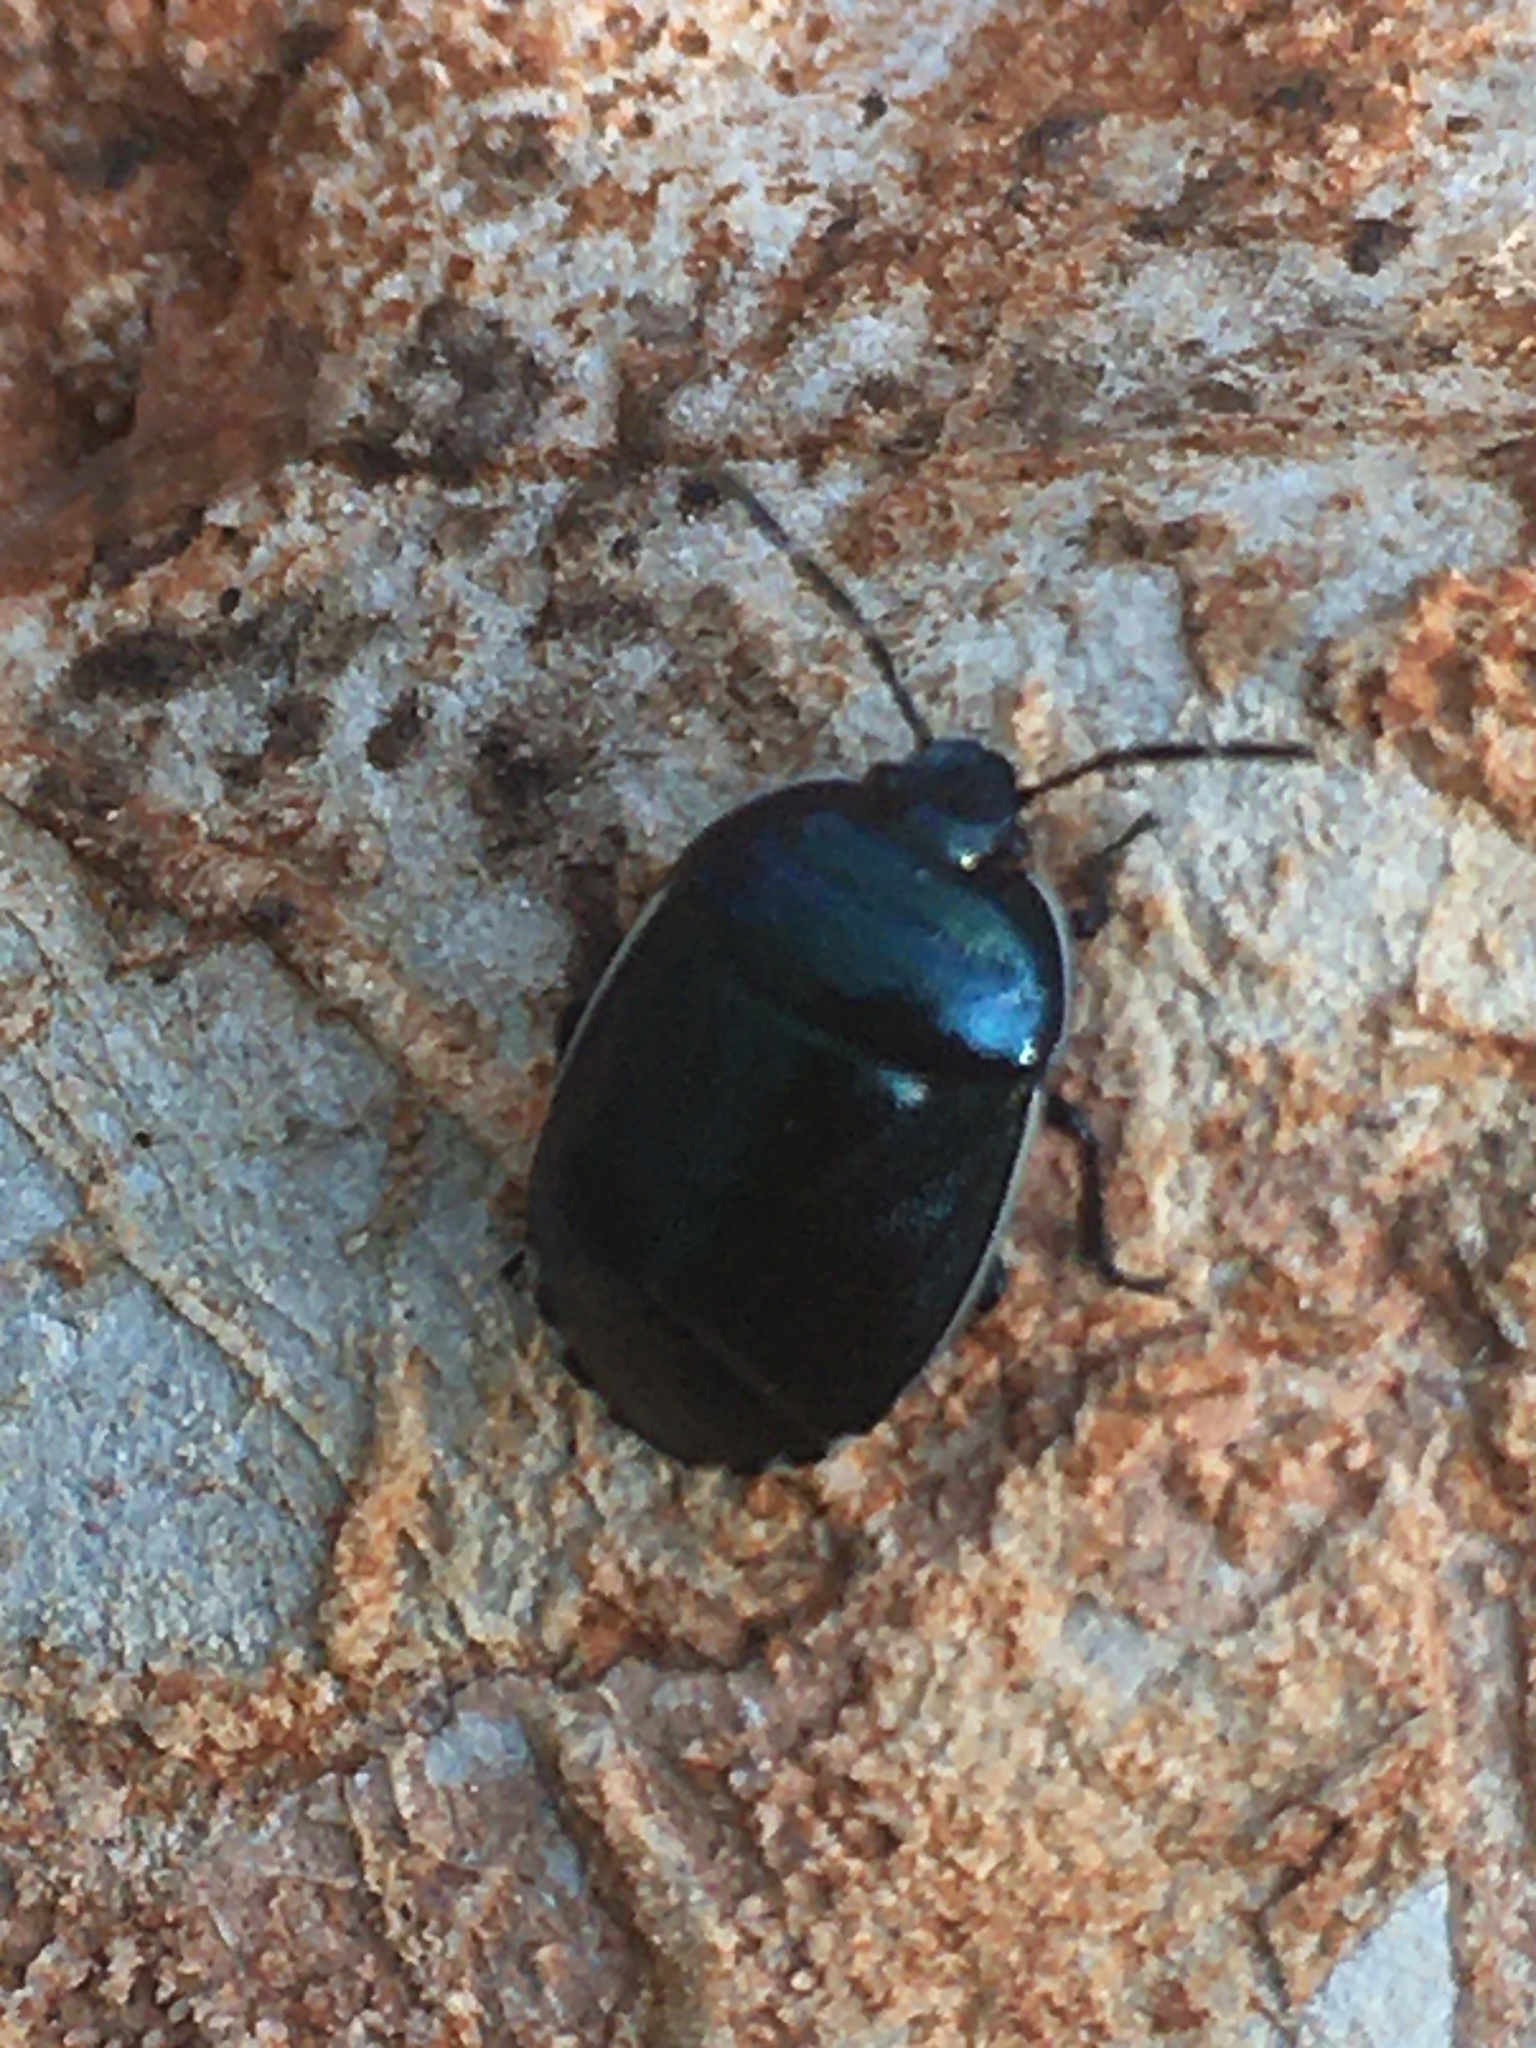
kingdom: Animalia
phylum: Arthropoda
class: Insecta
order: Hemiptera
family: Cydnidae
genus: Canthophorus
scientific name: Canthophorus melanopterus
